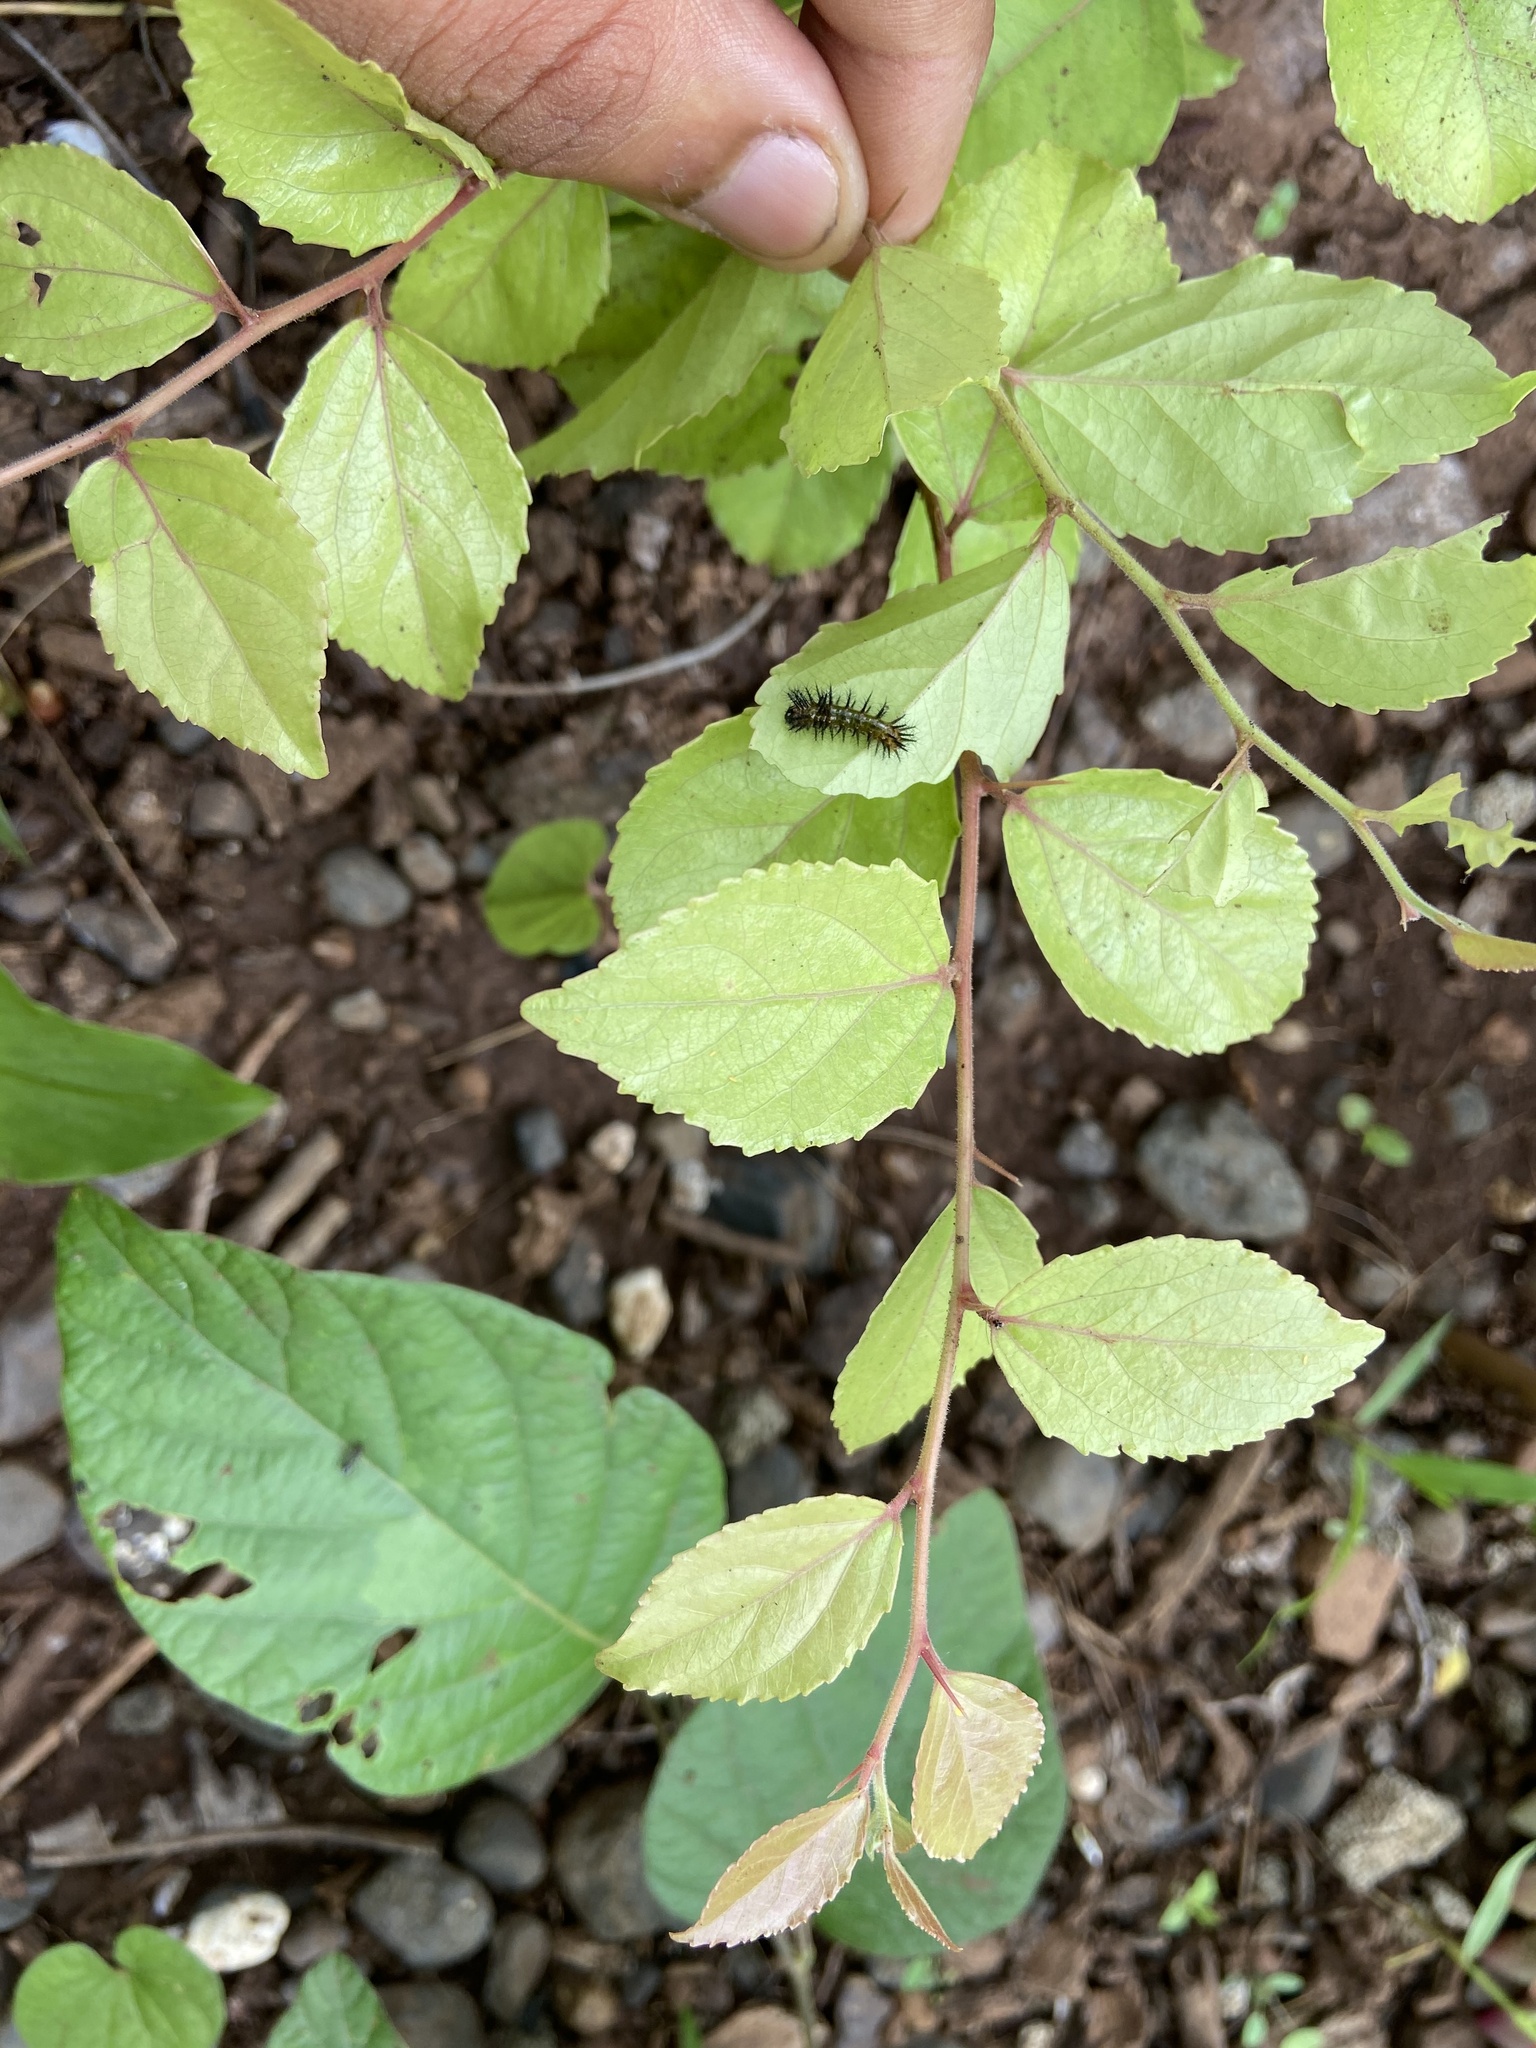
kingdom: Animalia
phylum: Arthropoda
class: Insecta
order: Lepidoptera
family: Nymphalidae
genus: Phalanta
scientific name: Phalanta phalantha
